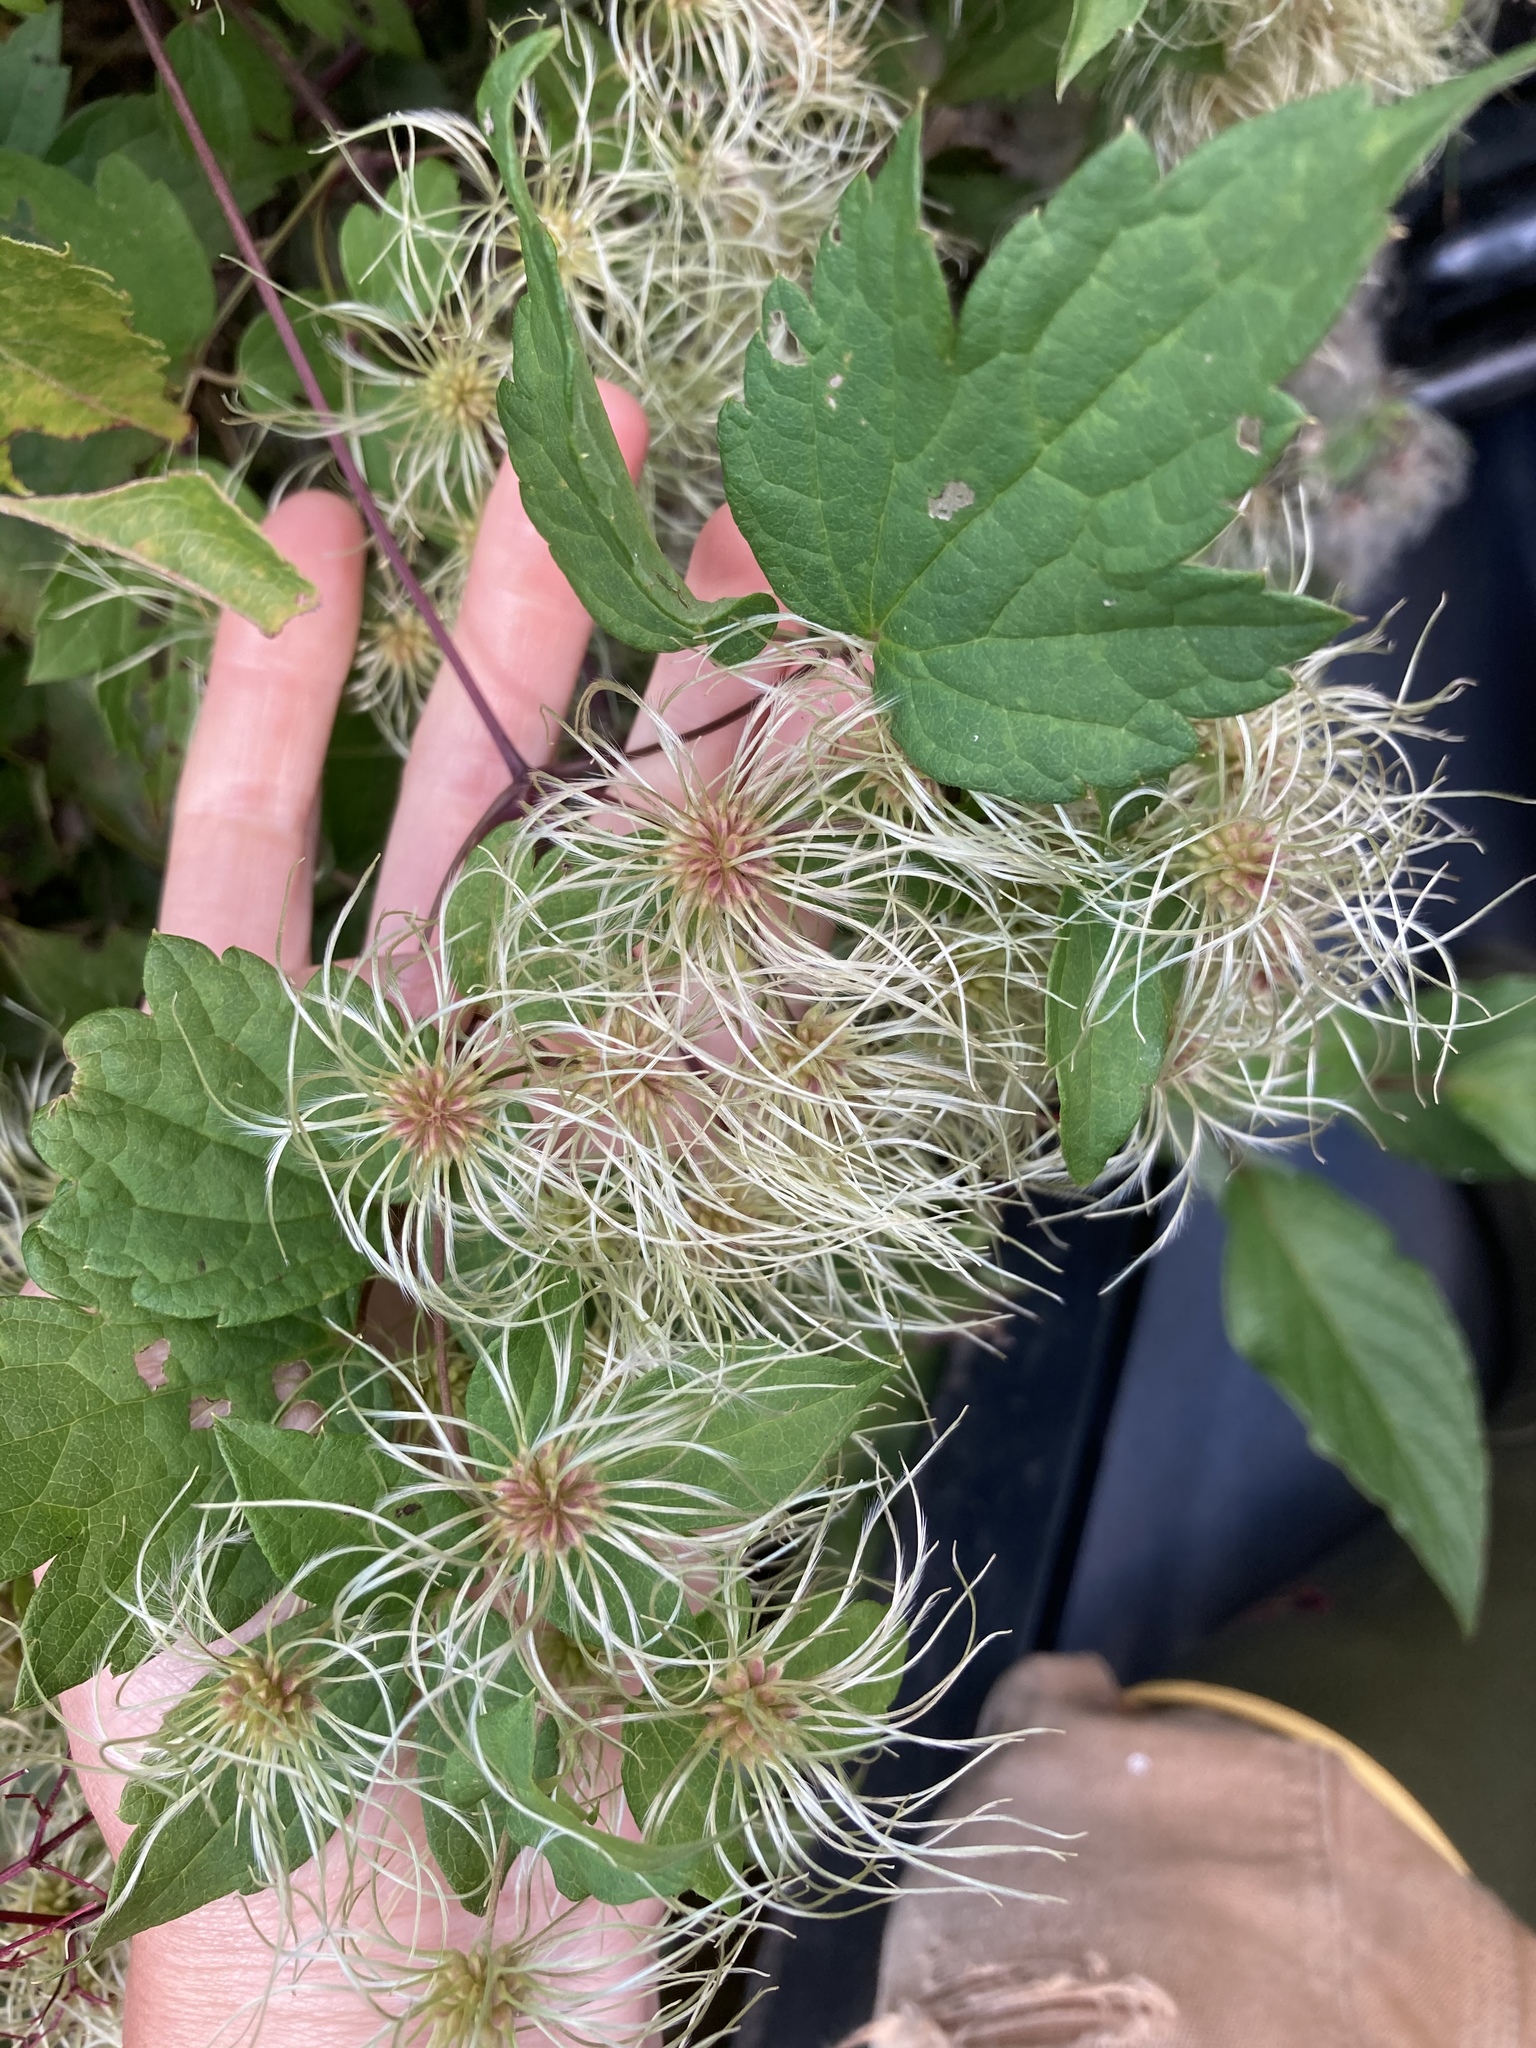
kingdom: Plantae
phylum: Tracheophyta
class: Magnoliopsida
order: Ranunculales
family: Ranunculaceae
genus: Clematis
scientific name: Clematis virginiana
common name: Virgin's-bower
